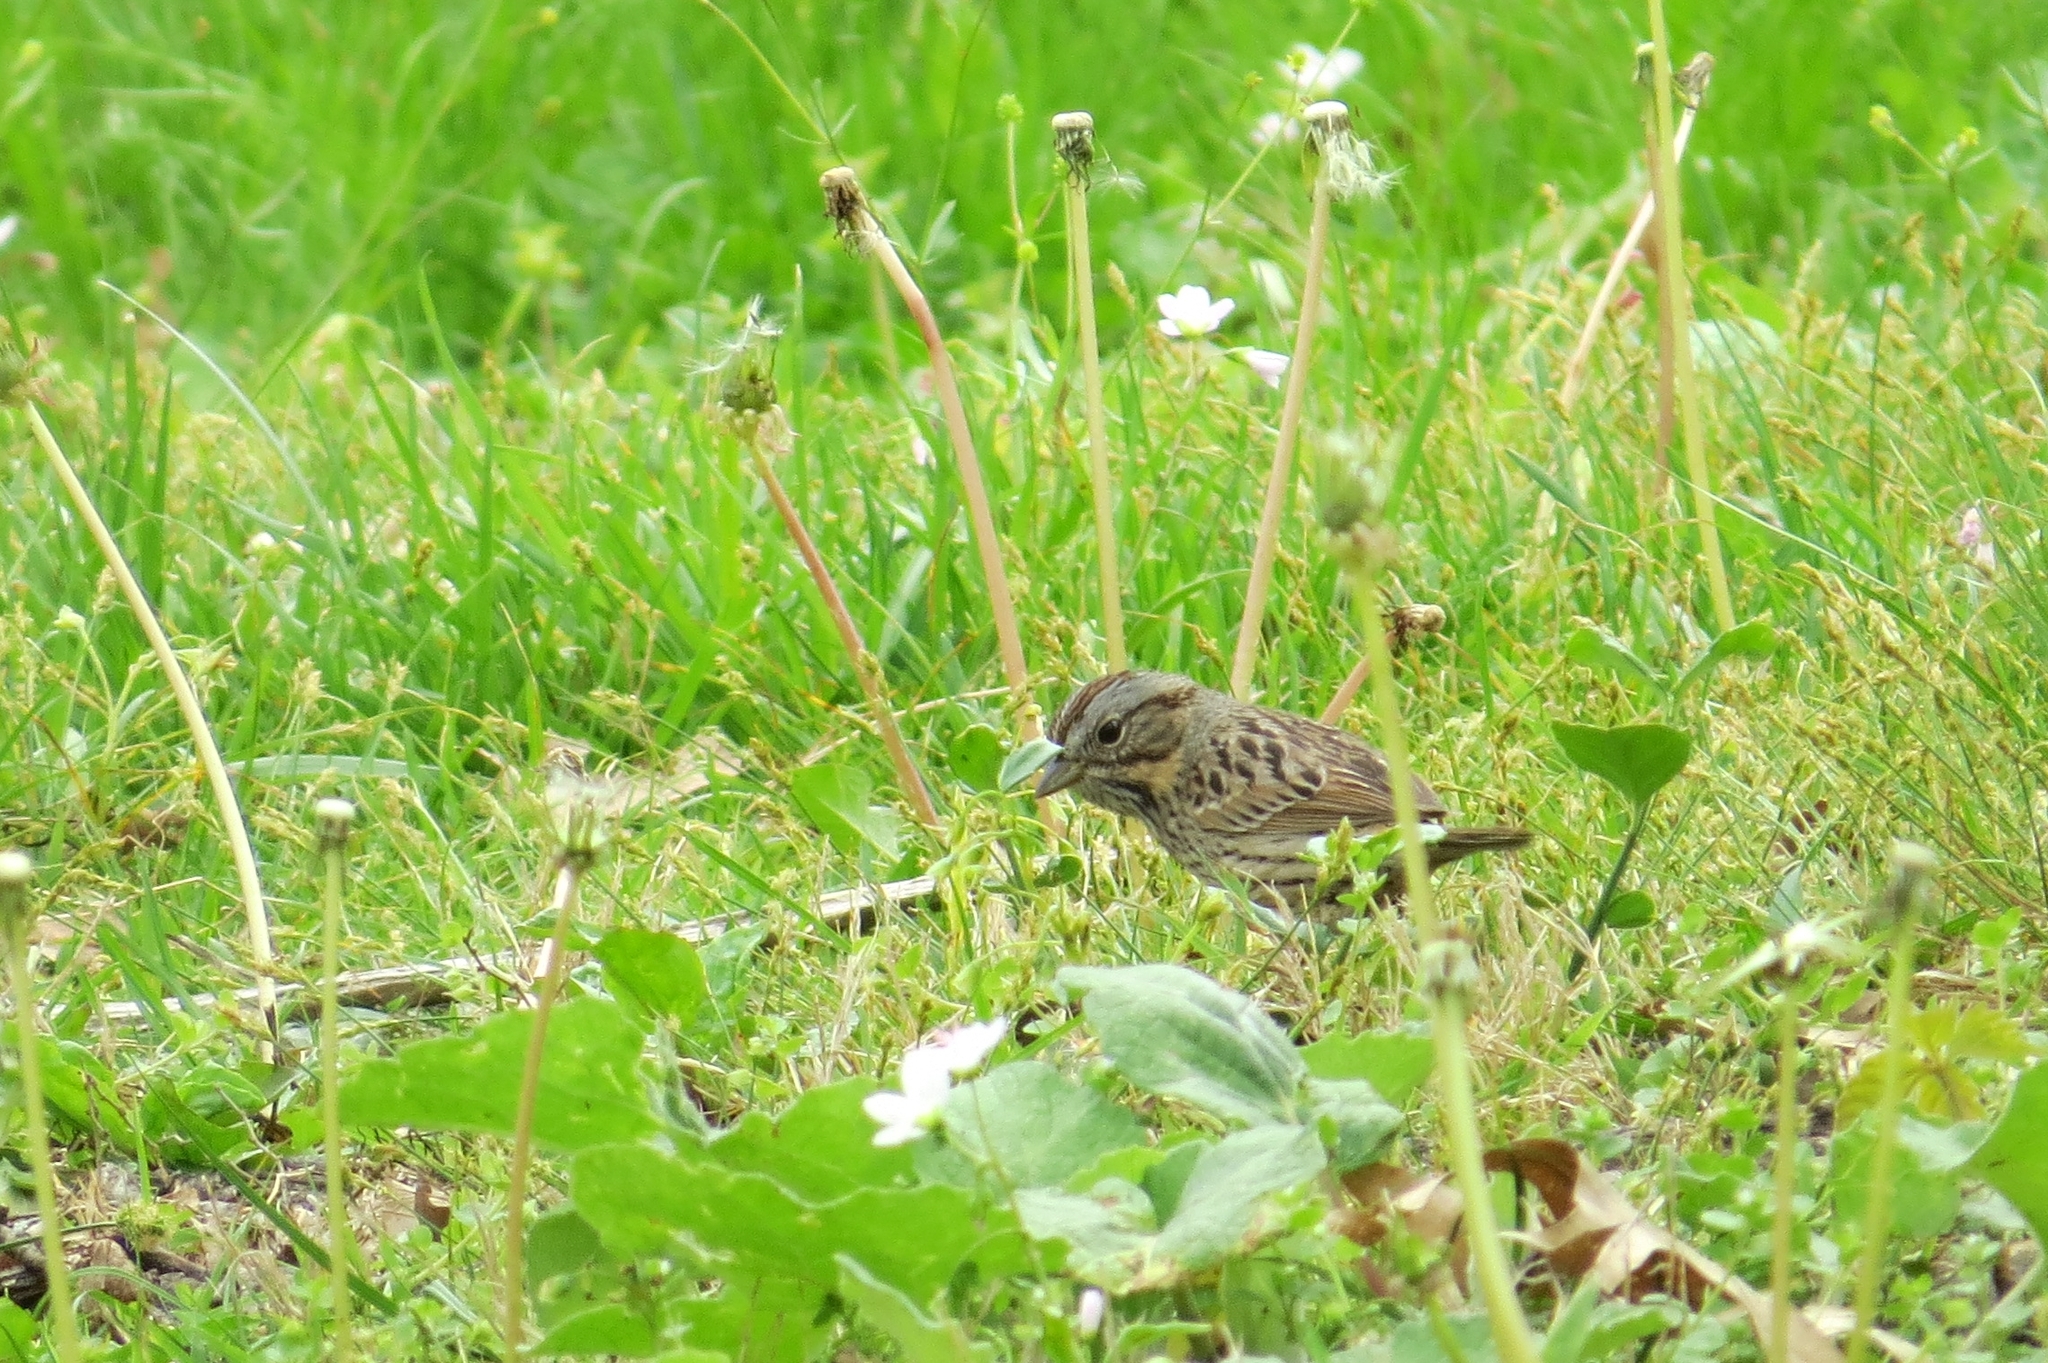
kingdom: Animalia
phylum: Chordata
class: Aves
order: Passeriformes
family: Passerellidae
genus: Melospiza
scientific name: Melospiza lincolnii
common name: Lincoln's sparrow
